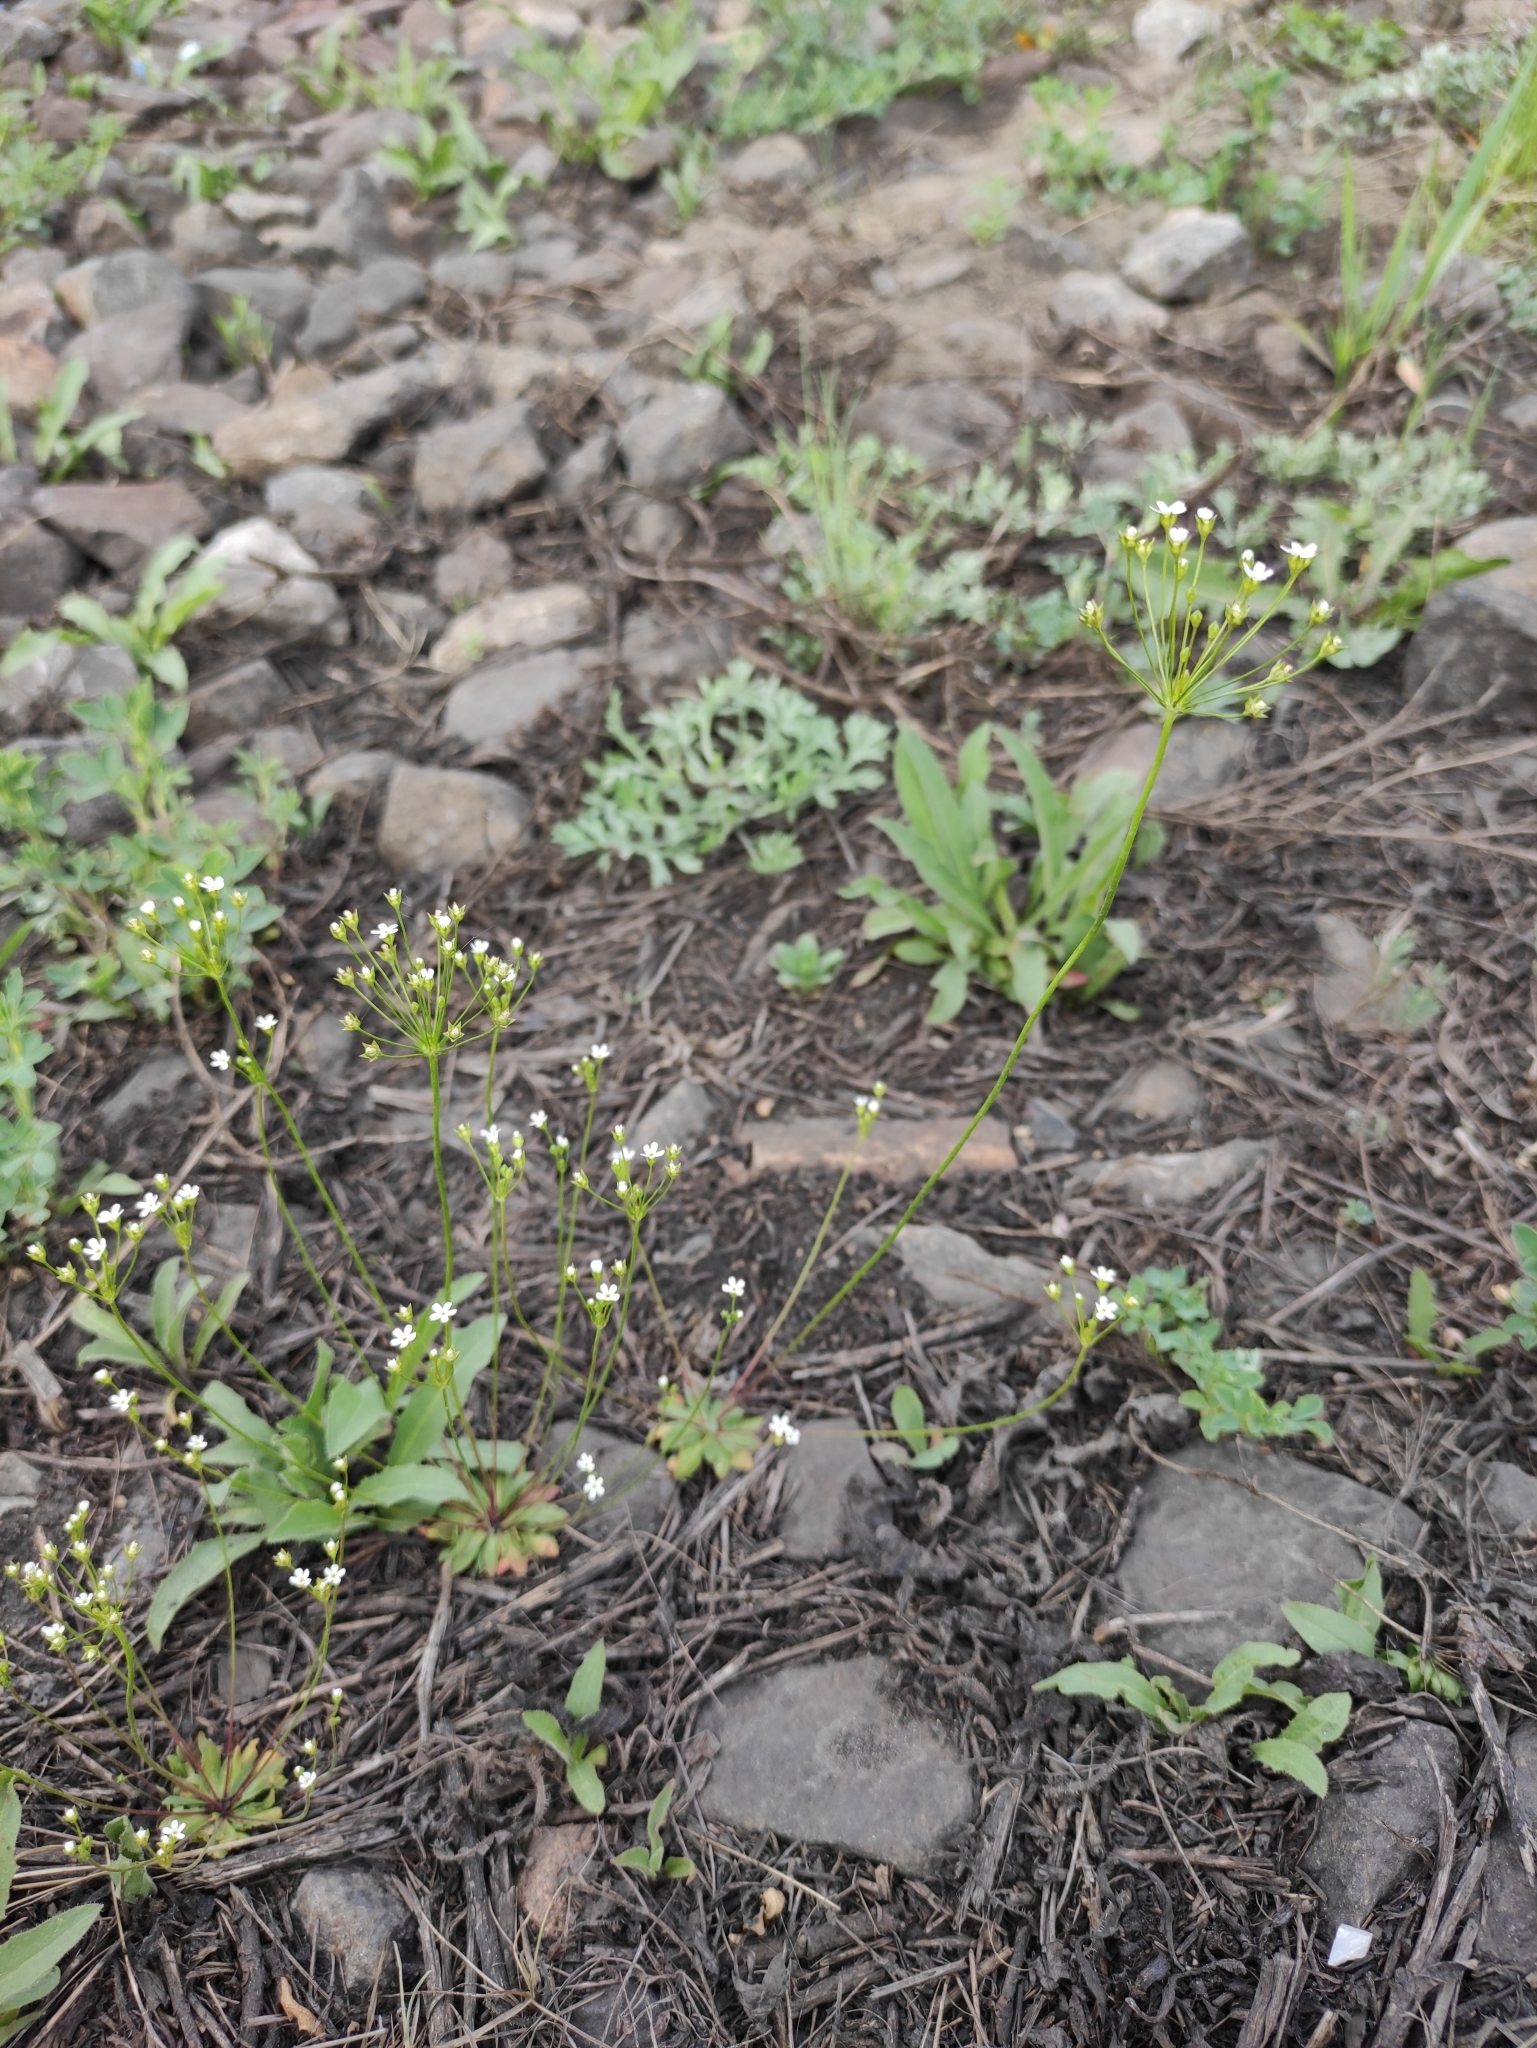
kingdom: Plantae
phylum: Tracheophyta
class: Magnoliopsida
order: Ericales
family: Primulaceae
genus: Androsace
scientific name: Androsace septentrionalis
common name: Hairy northern fairy-candelabra
